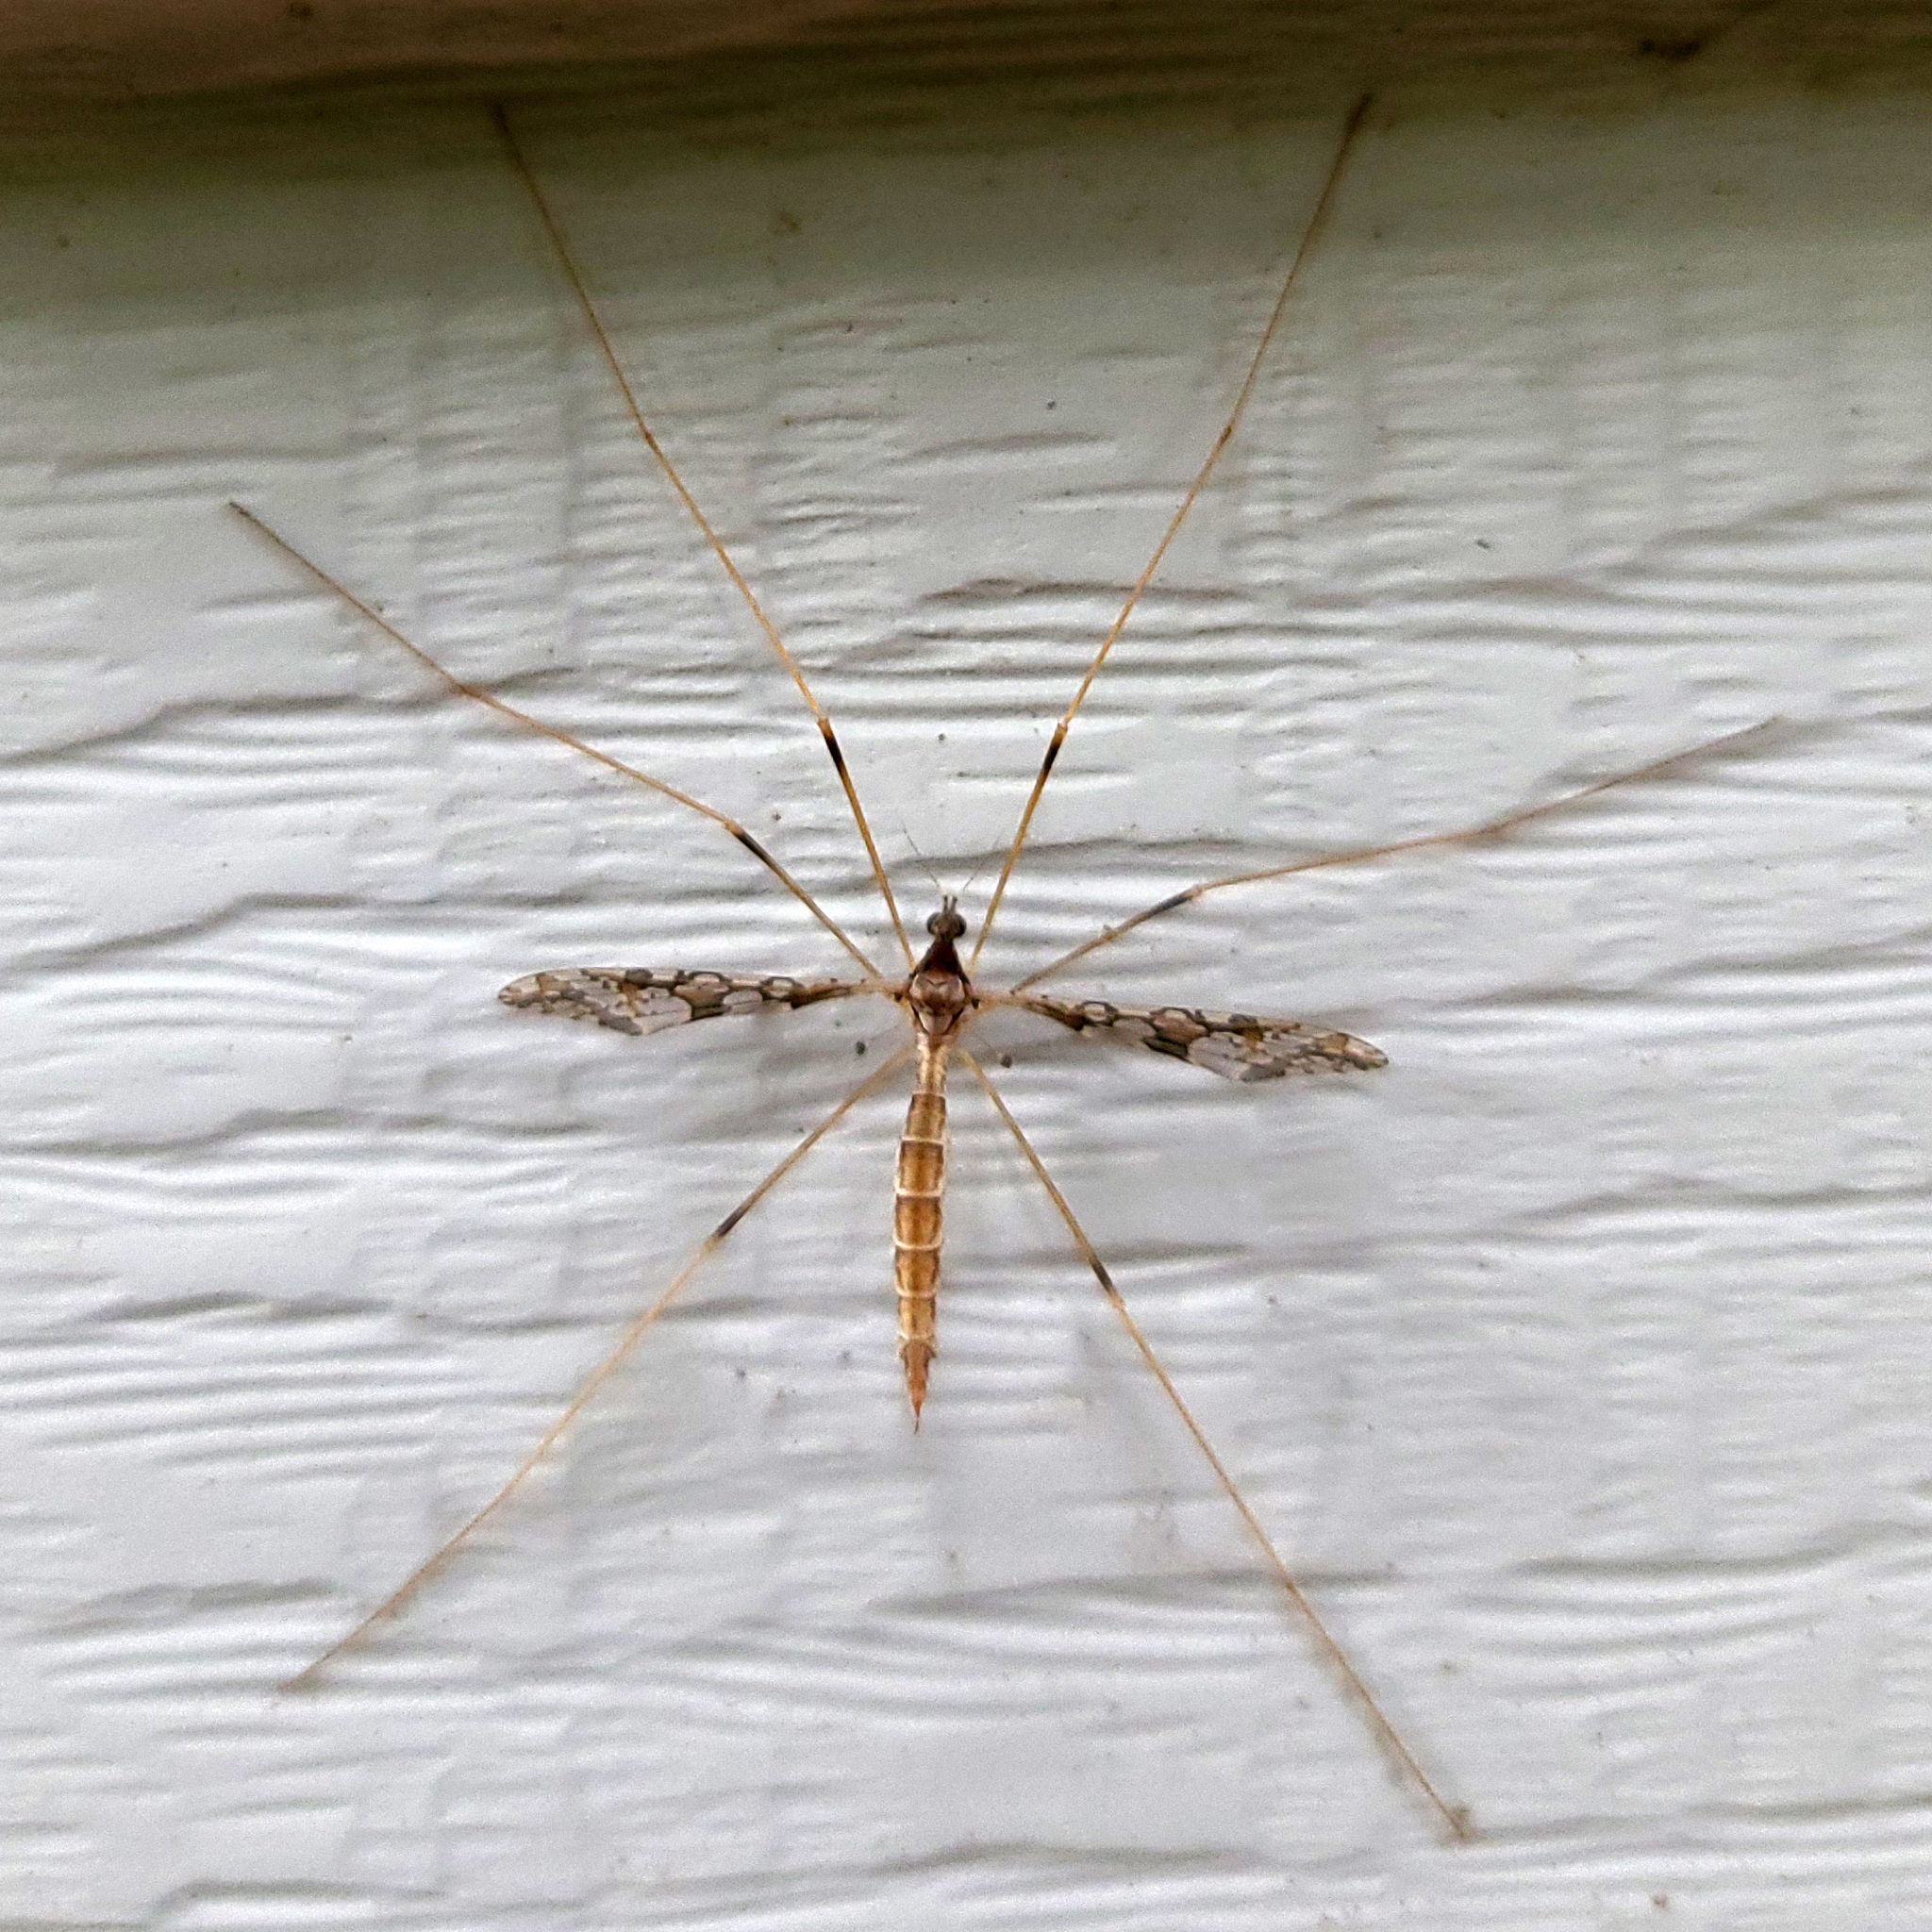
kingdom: Animalia
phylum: Arthropoda
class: Insecta
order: Diptera
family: Limoniidae
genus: Epiphragma
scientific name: Epiphragma solatrix
